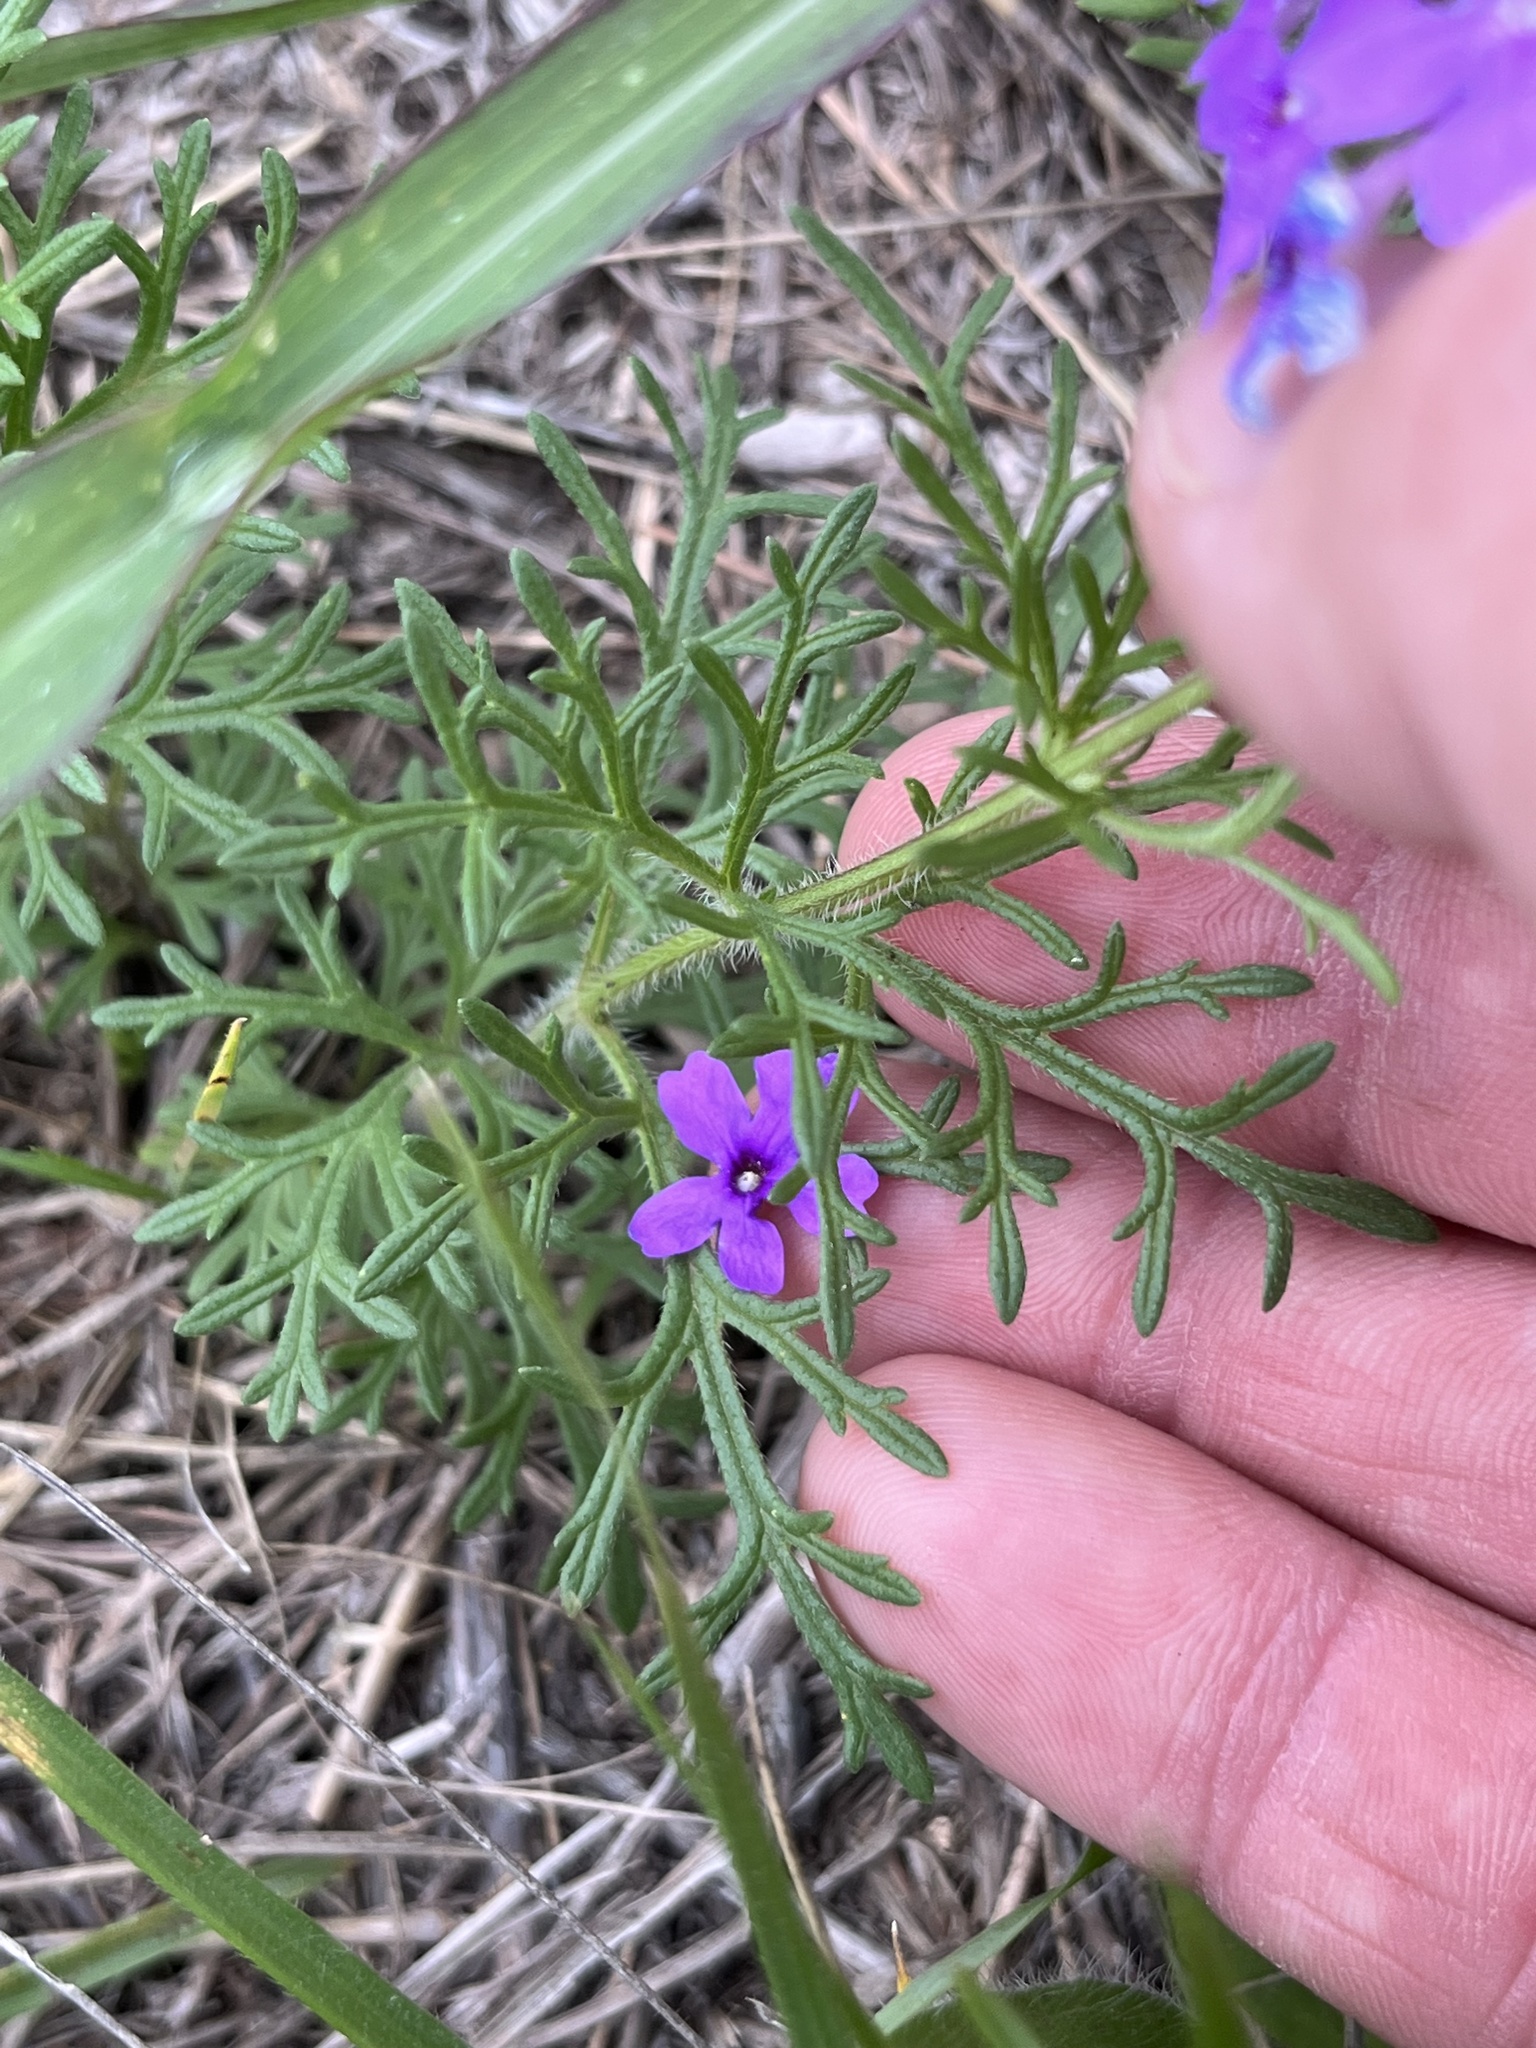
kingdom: Plantae
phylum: Tracheophyta
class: Magnoliopsida
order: Lamiales
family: Verbenaceae
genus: Verbena
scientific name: Verbena bipinnatifida
